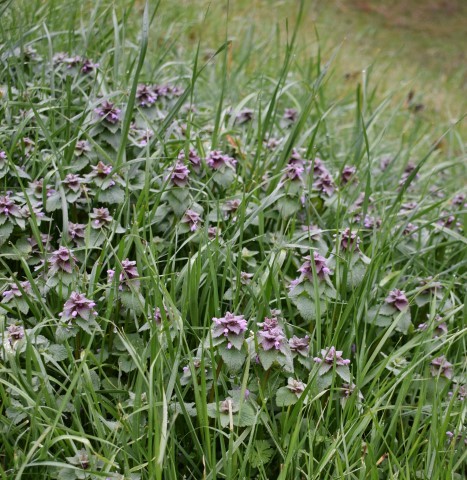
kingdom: Plantae
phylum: Tracheophyta
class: Magnoliopsida
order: Lamiales
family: Lamiaceae
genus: Lamium
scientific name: Lamium purpureum
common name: Red dead-nettle
